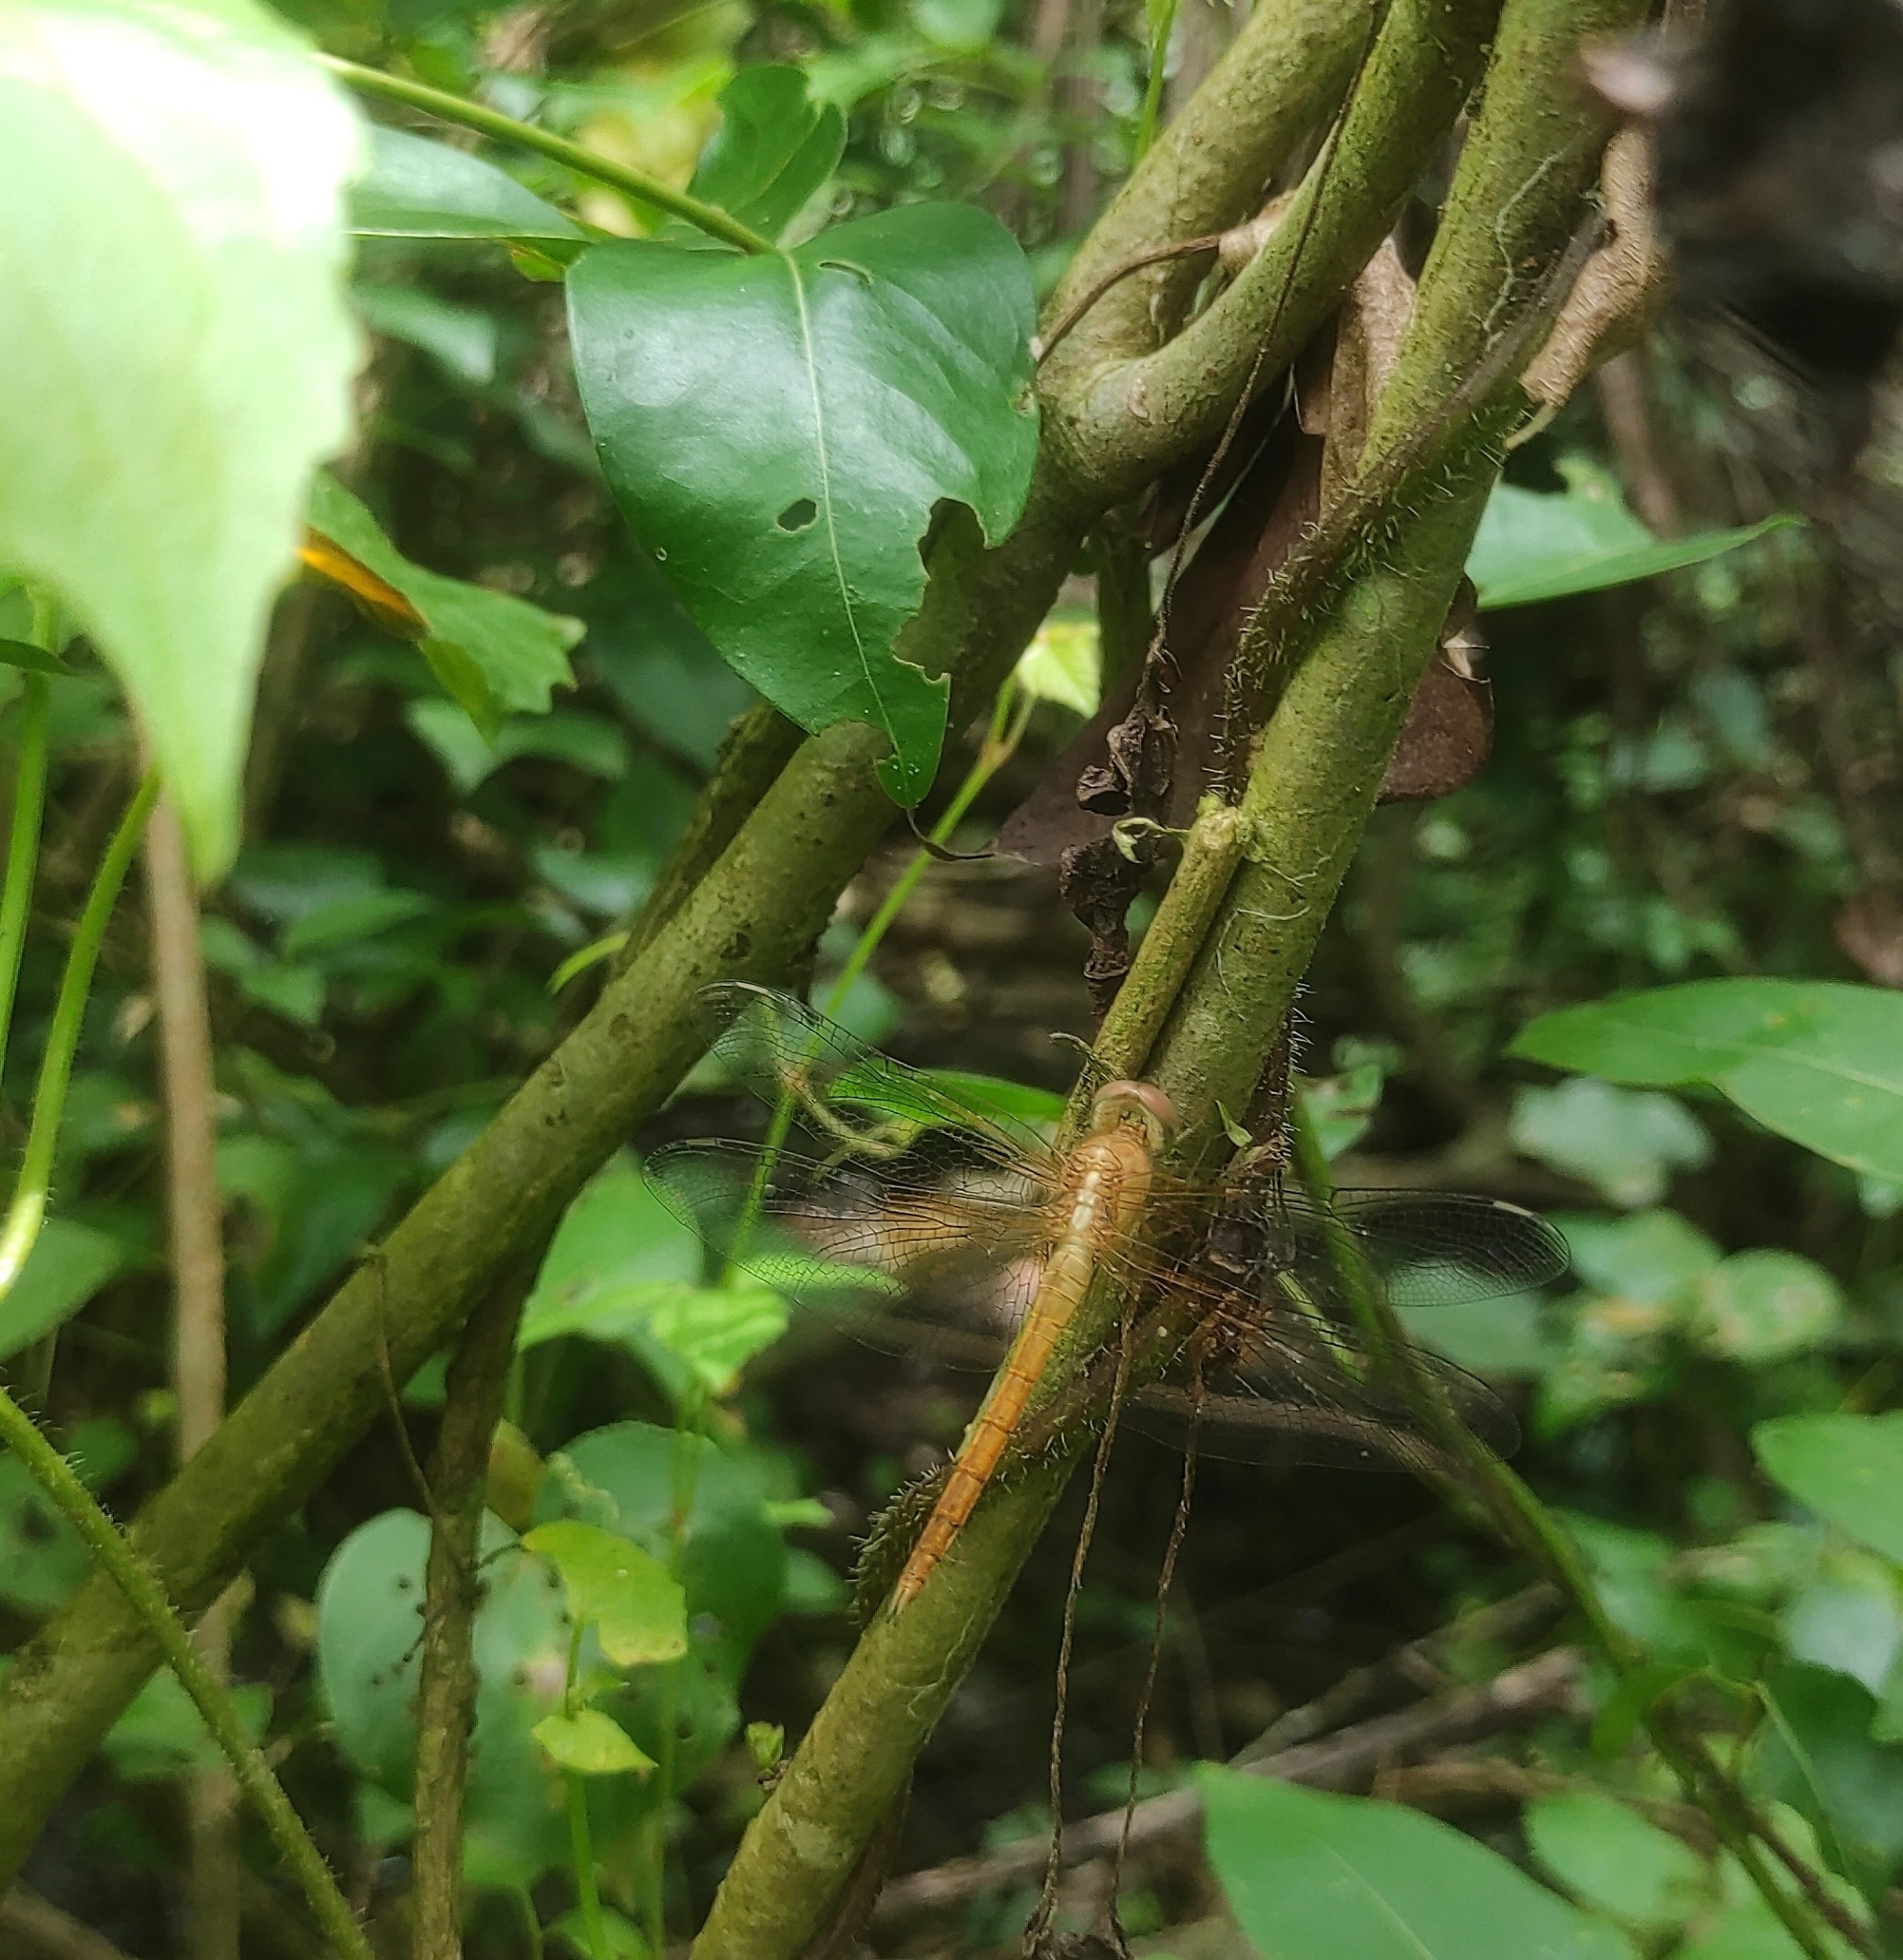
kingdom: Animalia
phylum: Arthropoda
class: Insecta
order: Odonata
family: Libellulidae
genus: Tholymis
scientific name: Tholymis tillarga
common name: Coral-tailed cloud wing
